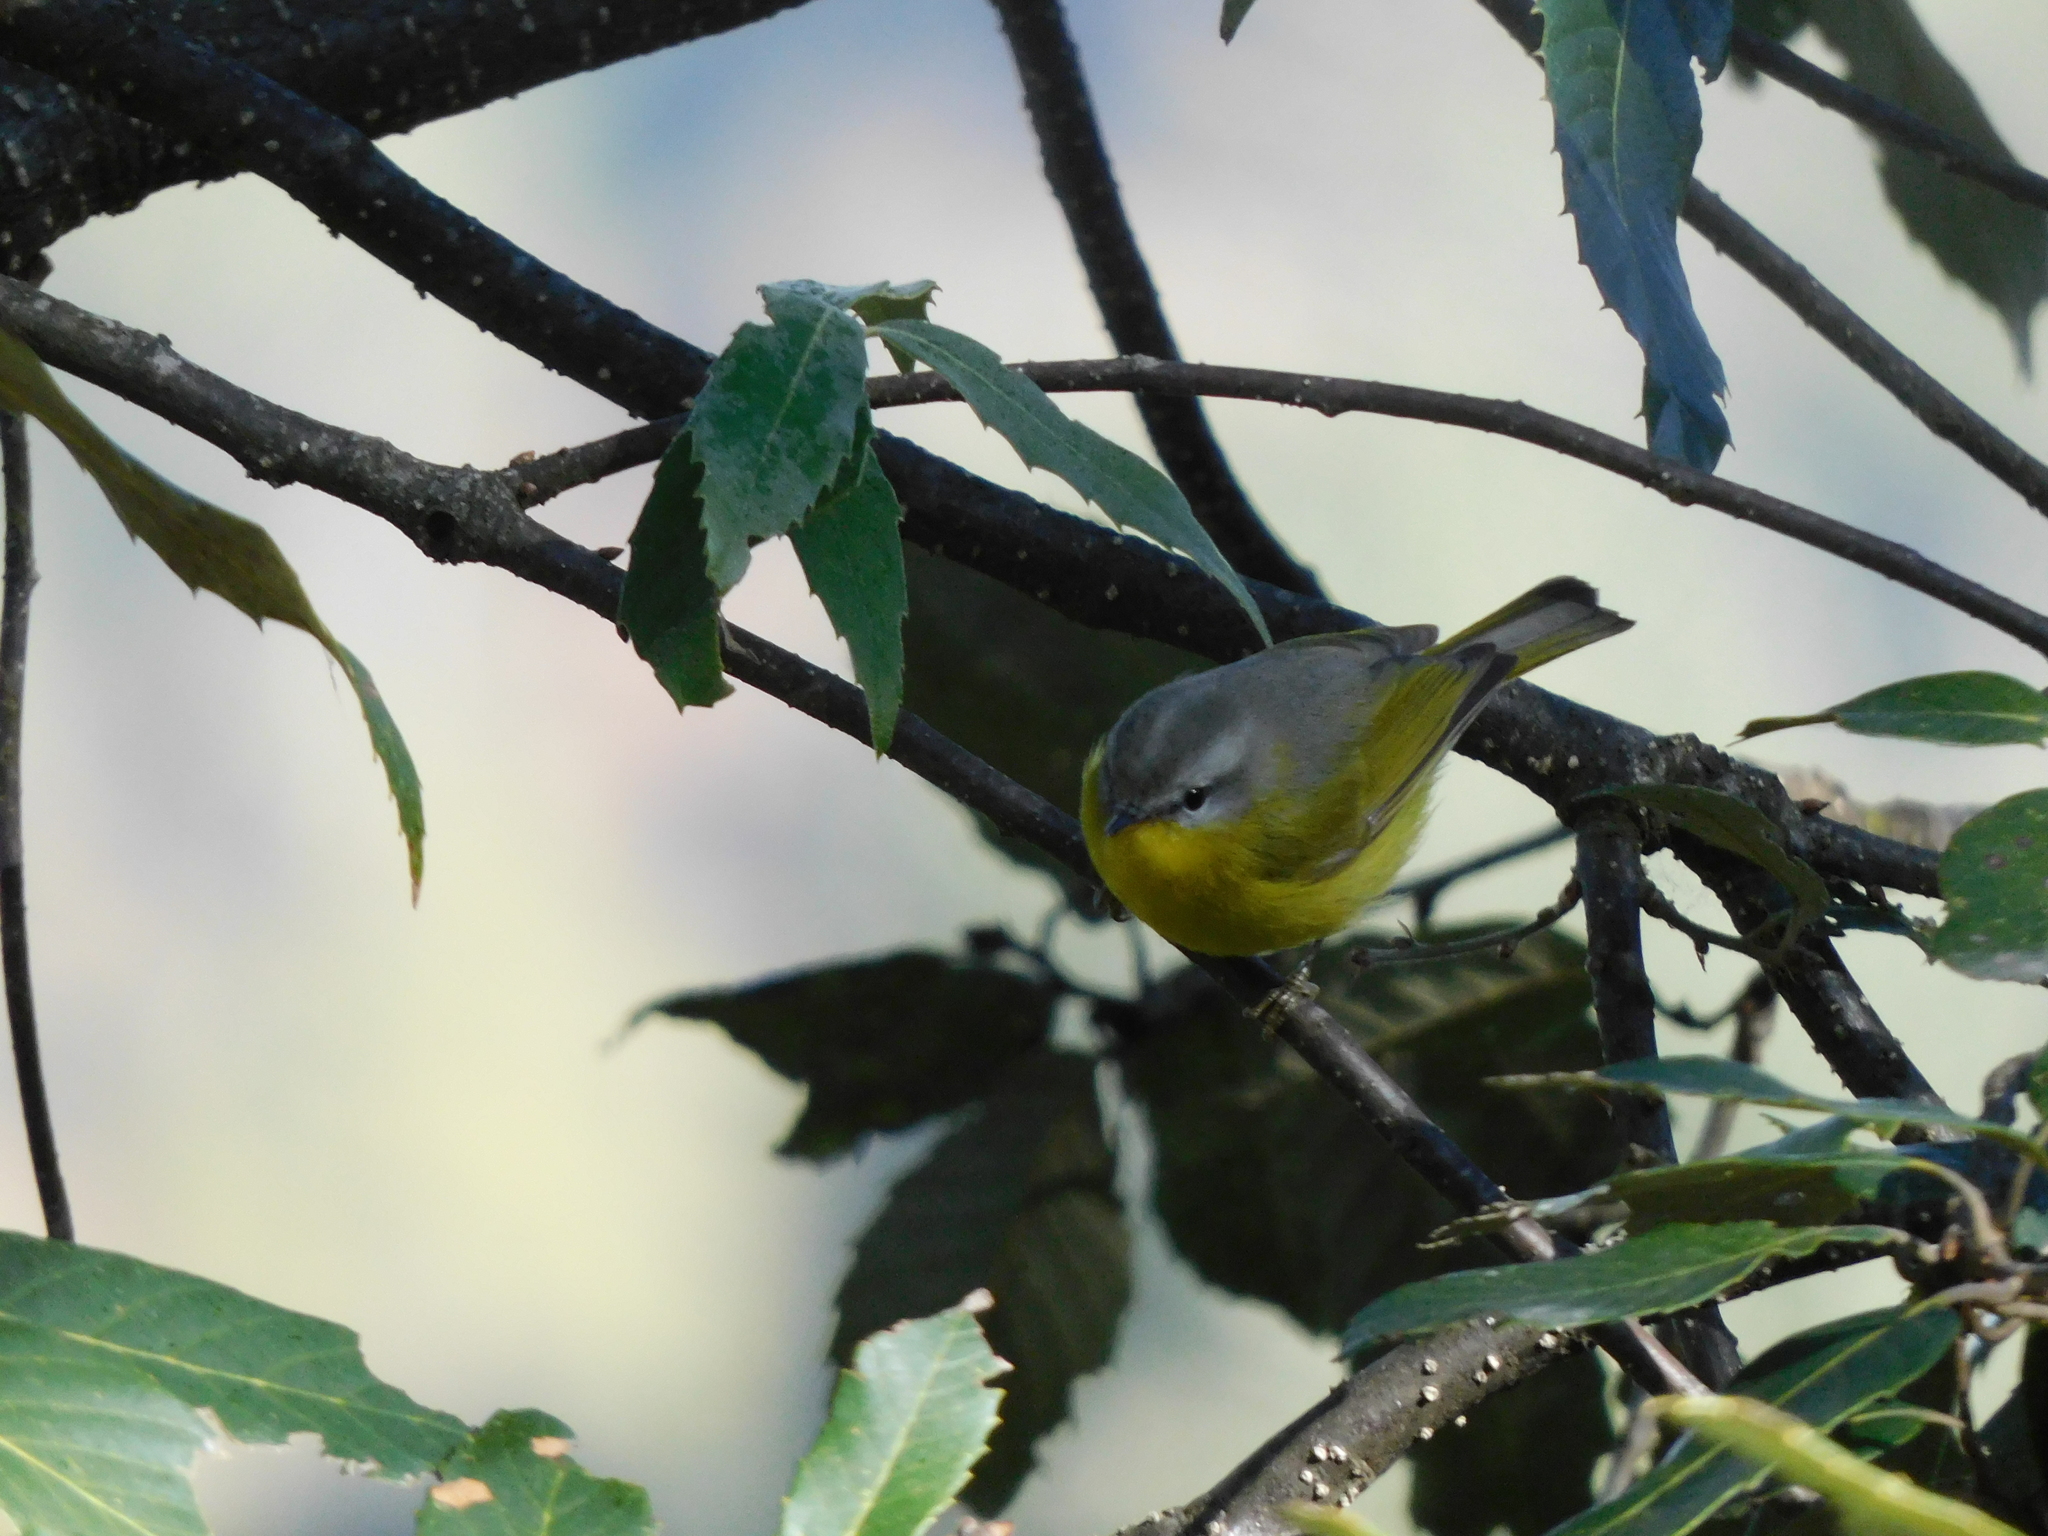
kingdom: Animalia
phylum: Chordata
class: Aves
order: Passeriformes
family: Phylloscopidae
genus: Phylloscopus
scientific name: Phylloscopus xanthoschistos
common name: Grey-hooded warbler
